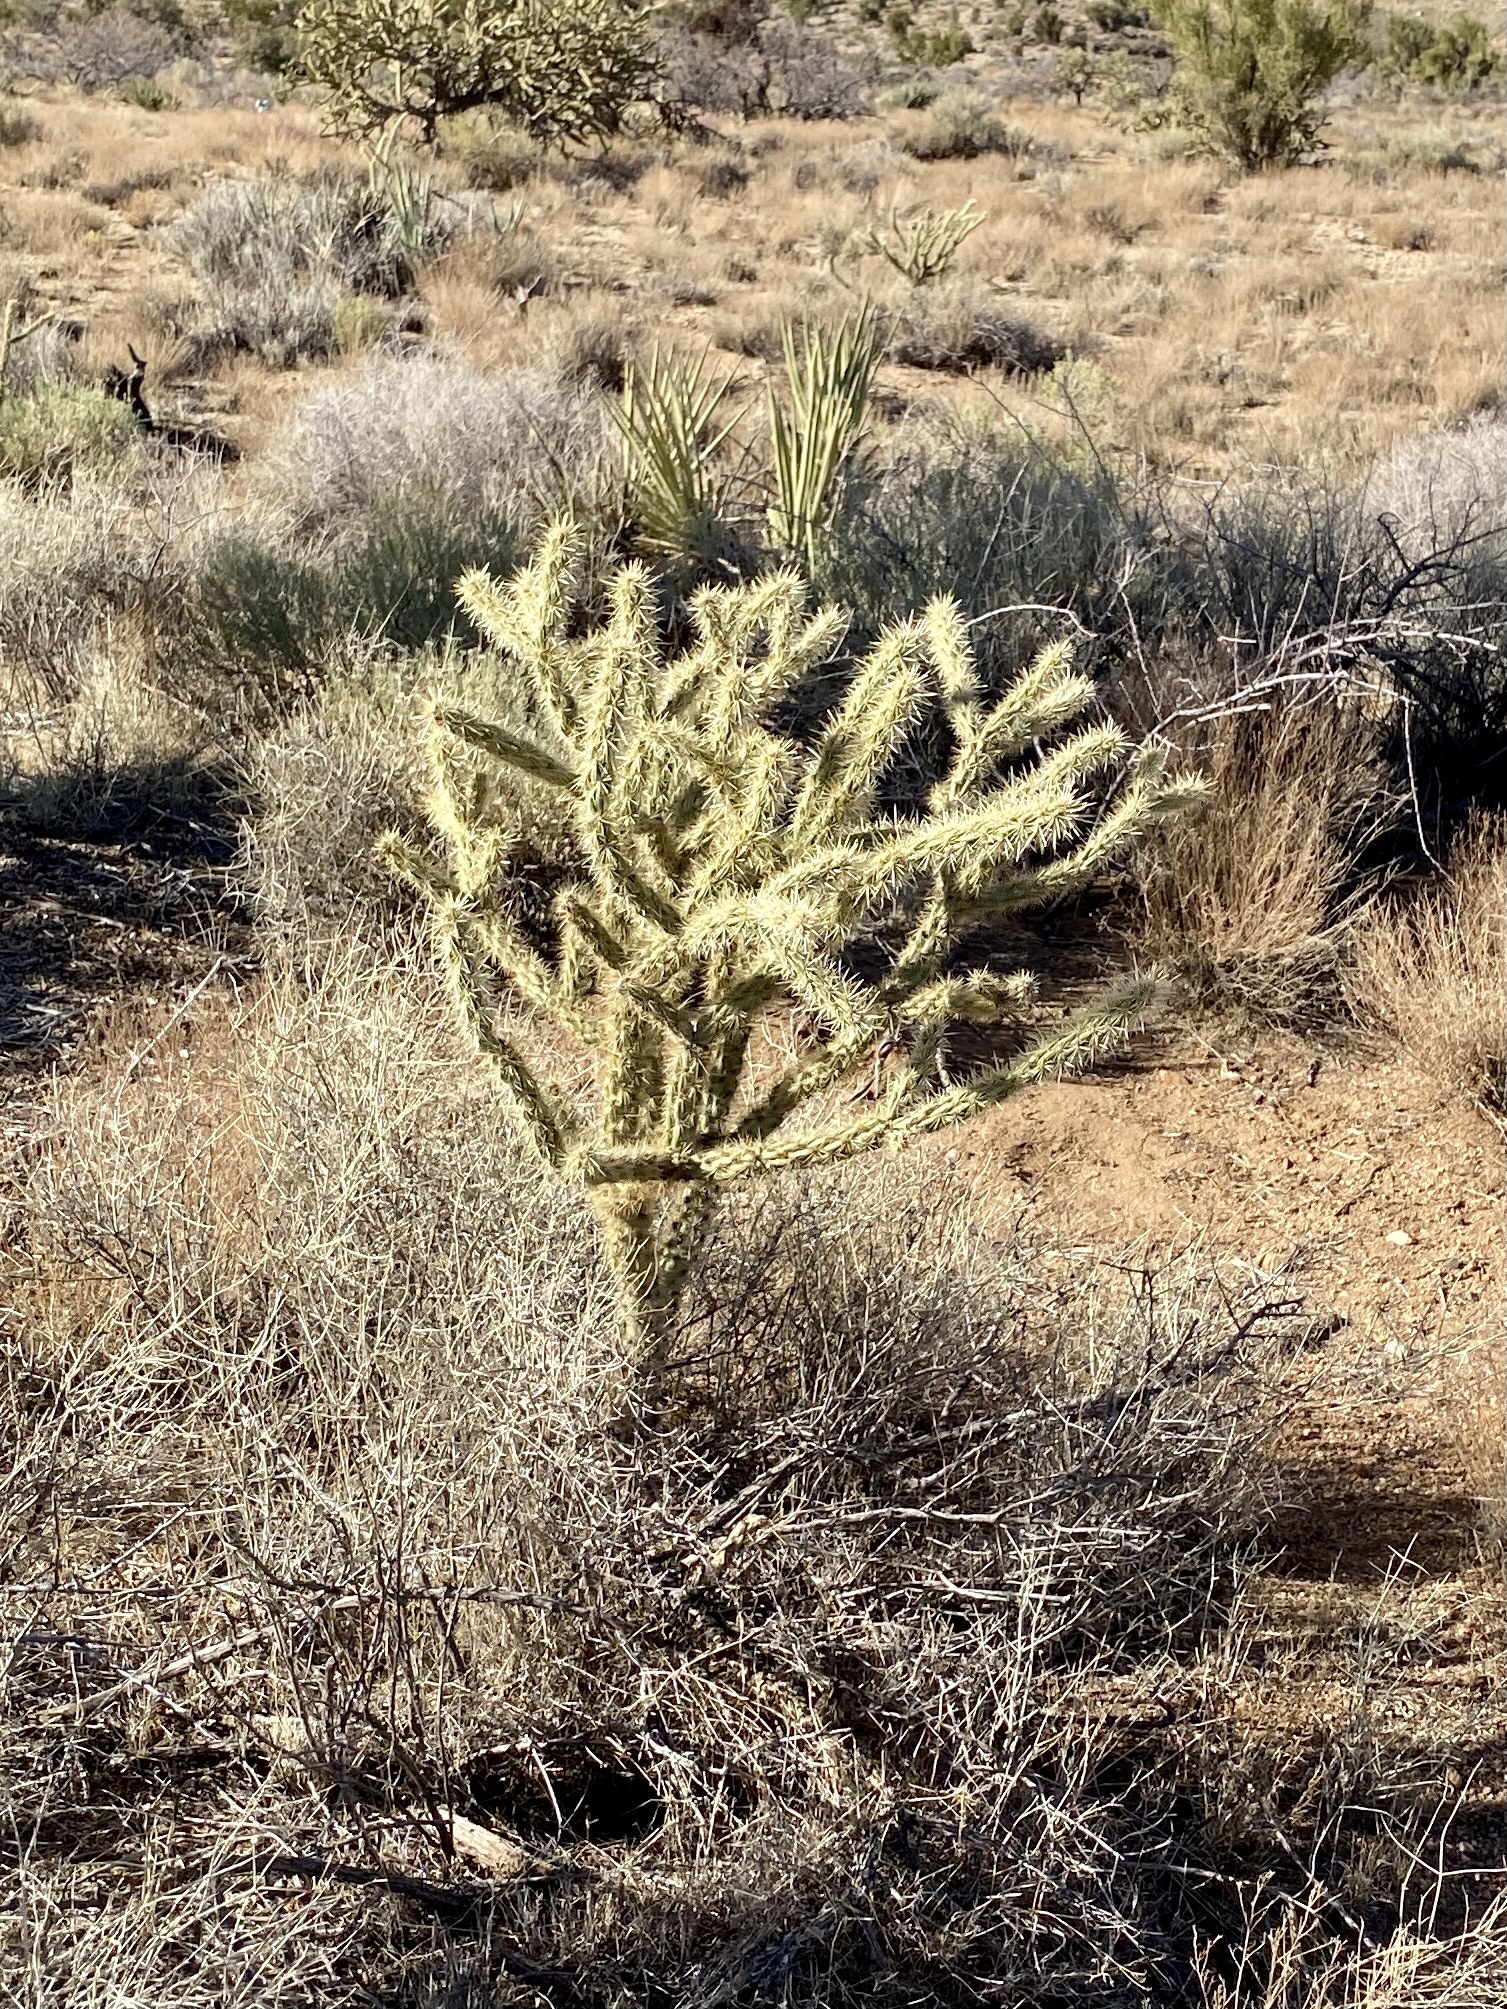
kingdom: Plantae
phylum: Tracheophyta
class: Magnoliopsida
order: Caryophyllales
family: Cactaceae
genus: Cylindropuntia
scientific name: Cylindropuntia acanthocarpa
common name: Buckhorn cholla
